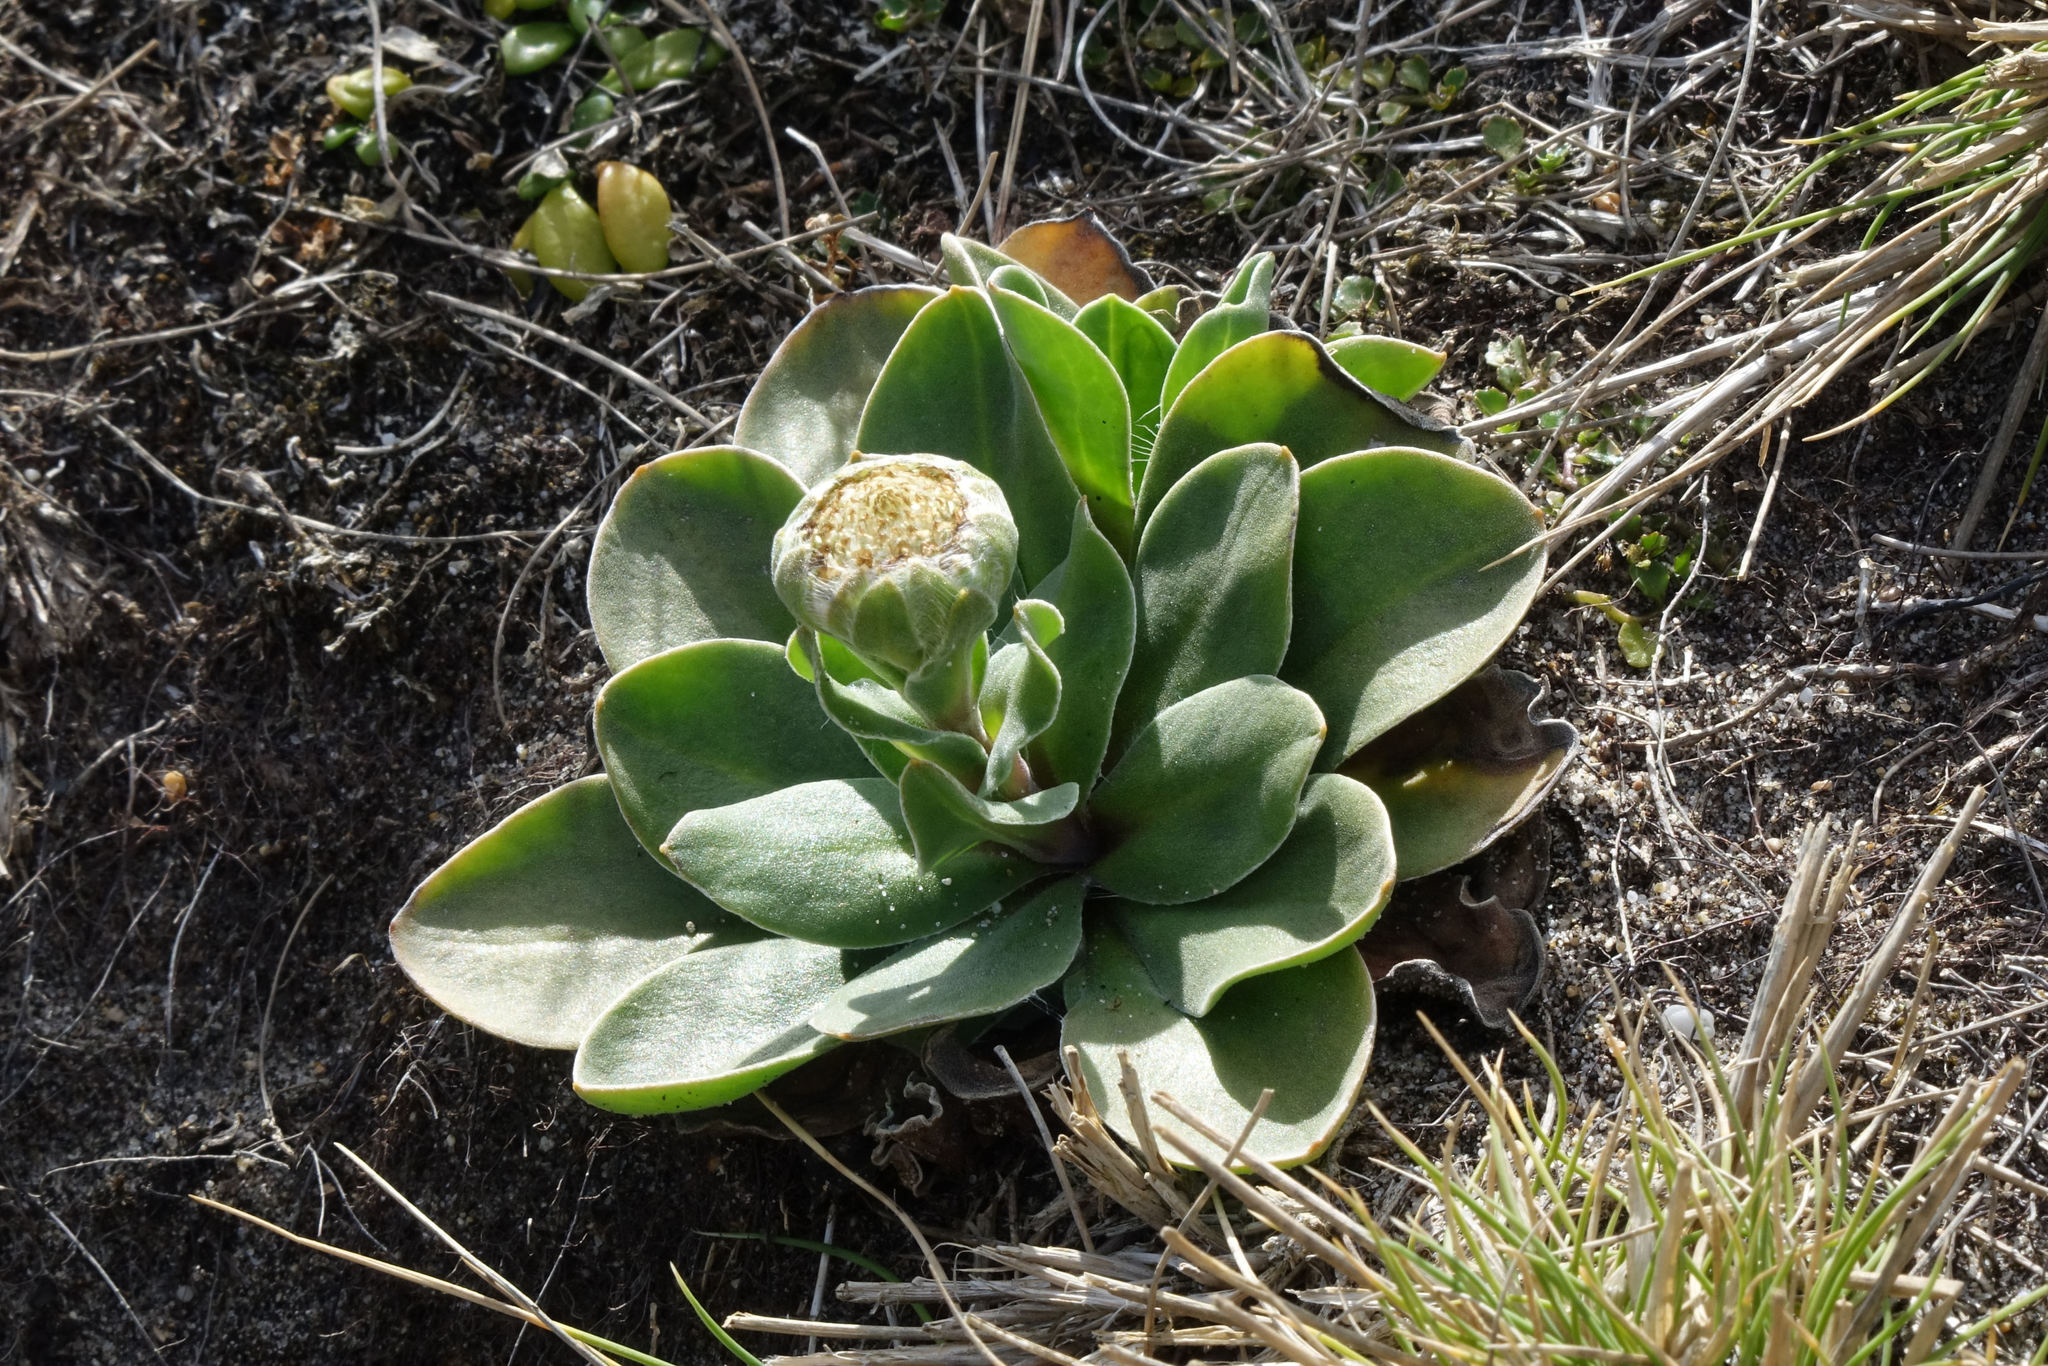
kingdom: Plantae
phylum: Tracheophyta
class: Magnoliopsida
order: Asterales
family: Asteraceae
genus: Craspedia
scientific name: Craspedia robusta
